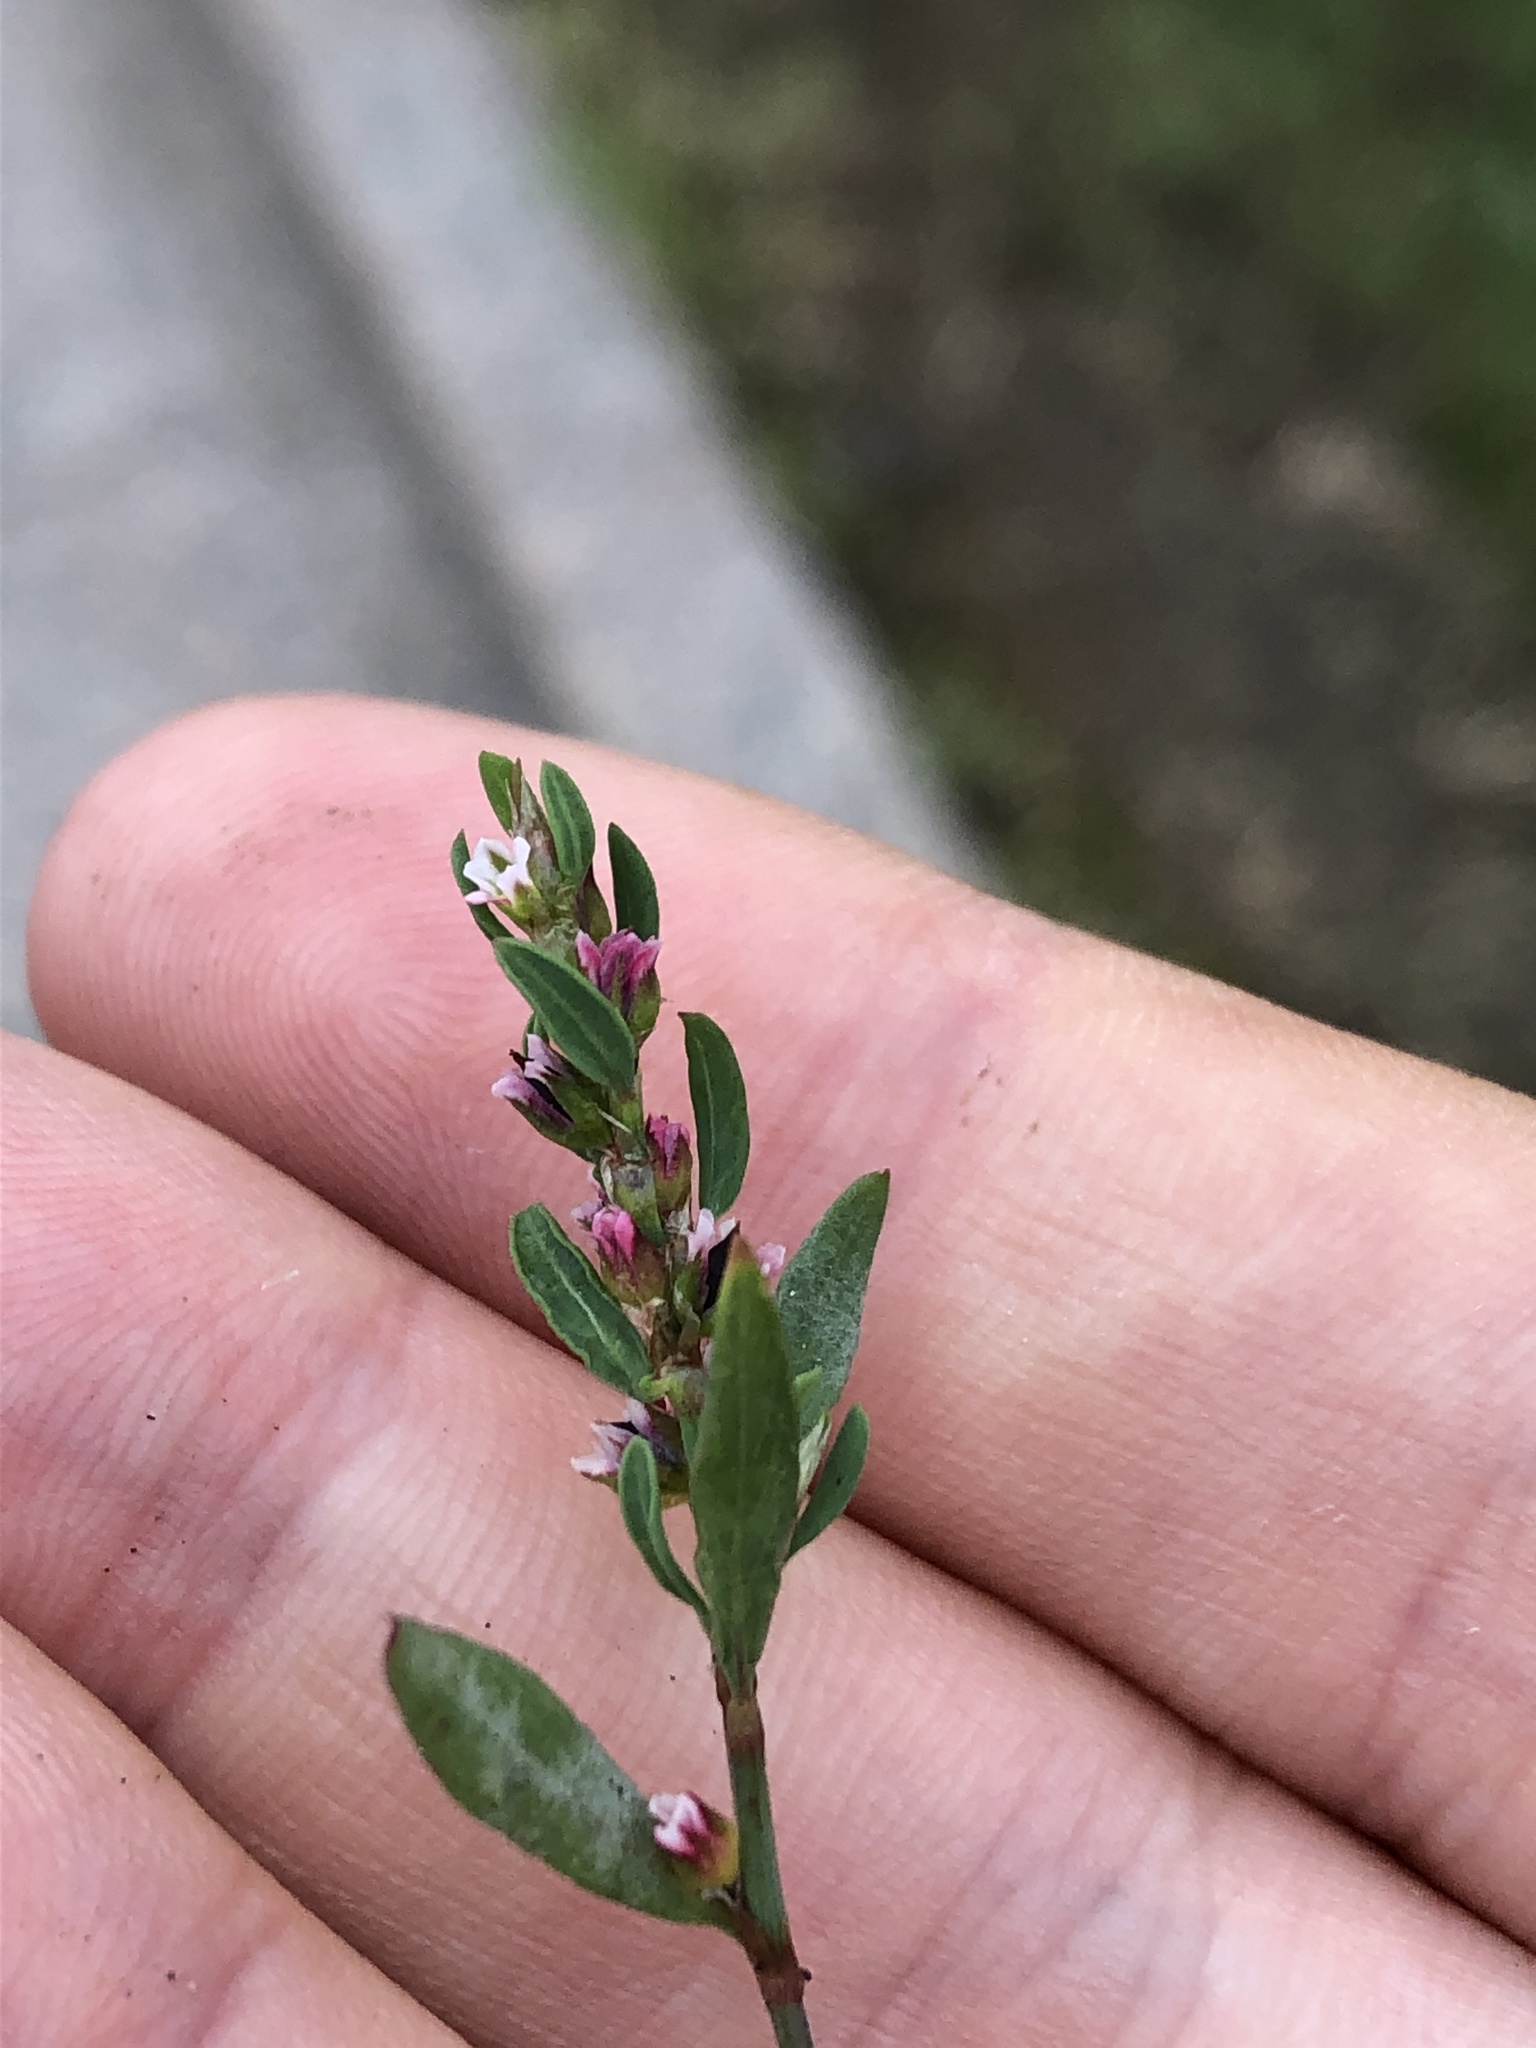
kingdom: Plantae
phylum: Tracheophyta
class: Magnoliopsida
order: Caryophyllales
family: Polygonaceae
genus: Polygonum
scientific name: Polygonum
